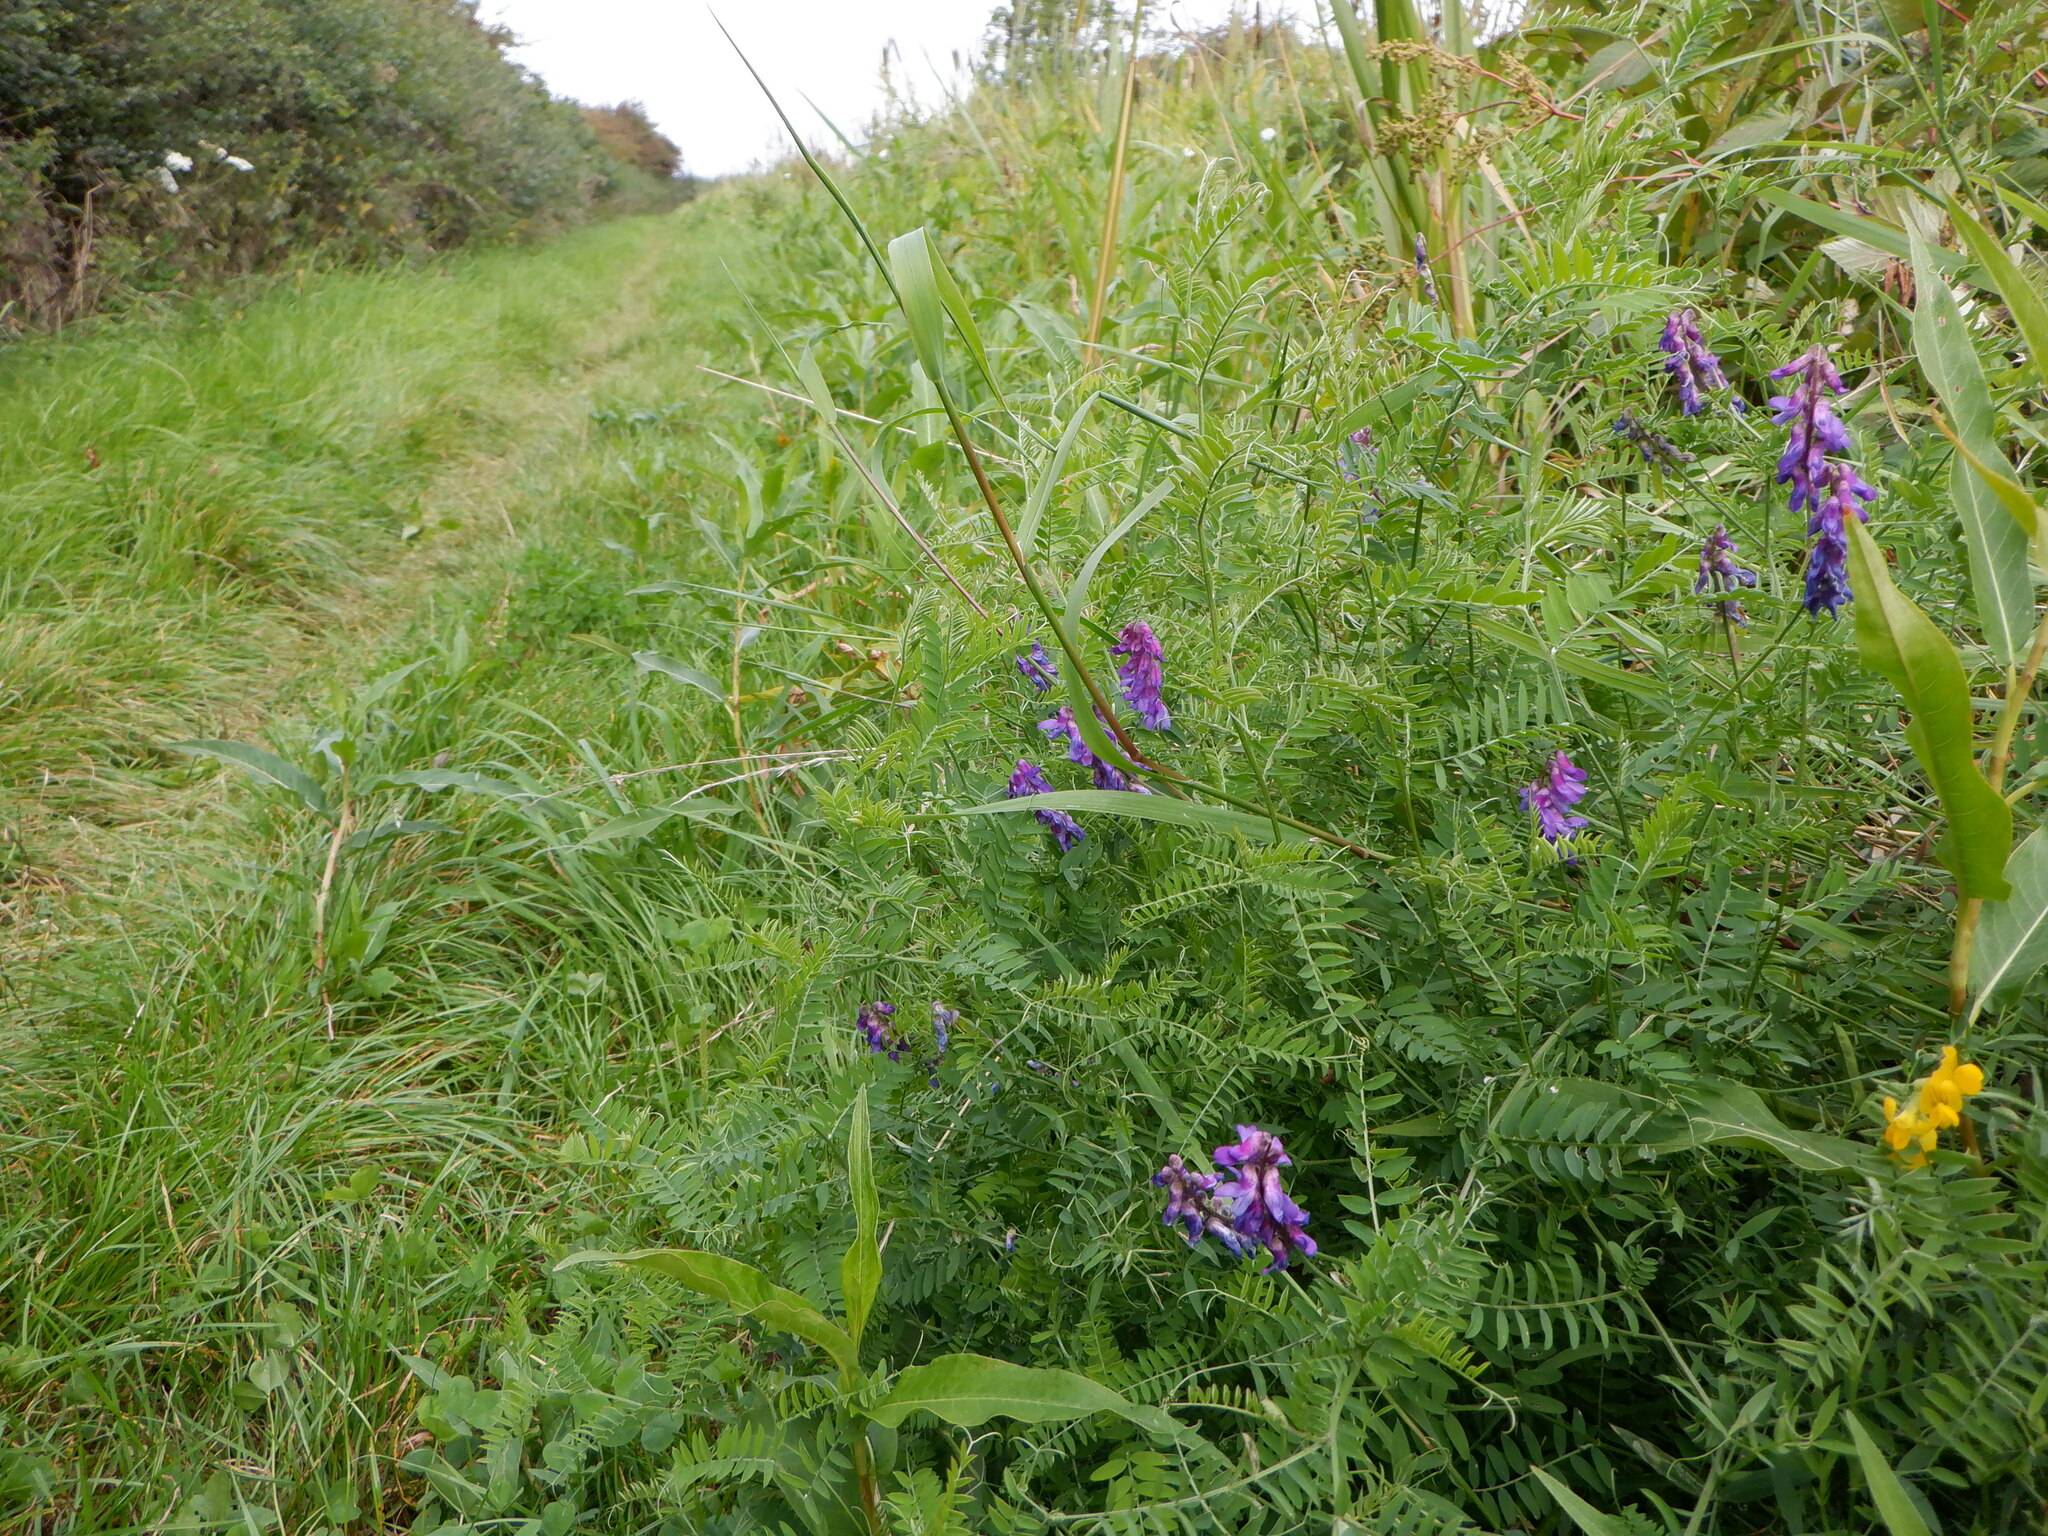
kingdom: Plantae
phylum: Tracheophyta
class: Magnoliopsida
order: Fabales
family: Fabaceae
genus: Vicia
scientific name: Vicia cracca
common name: Bird vetch
